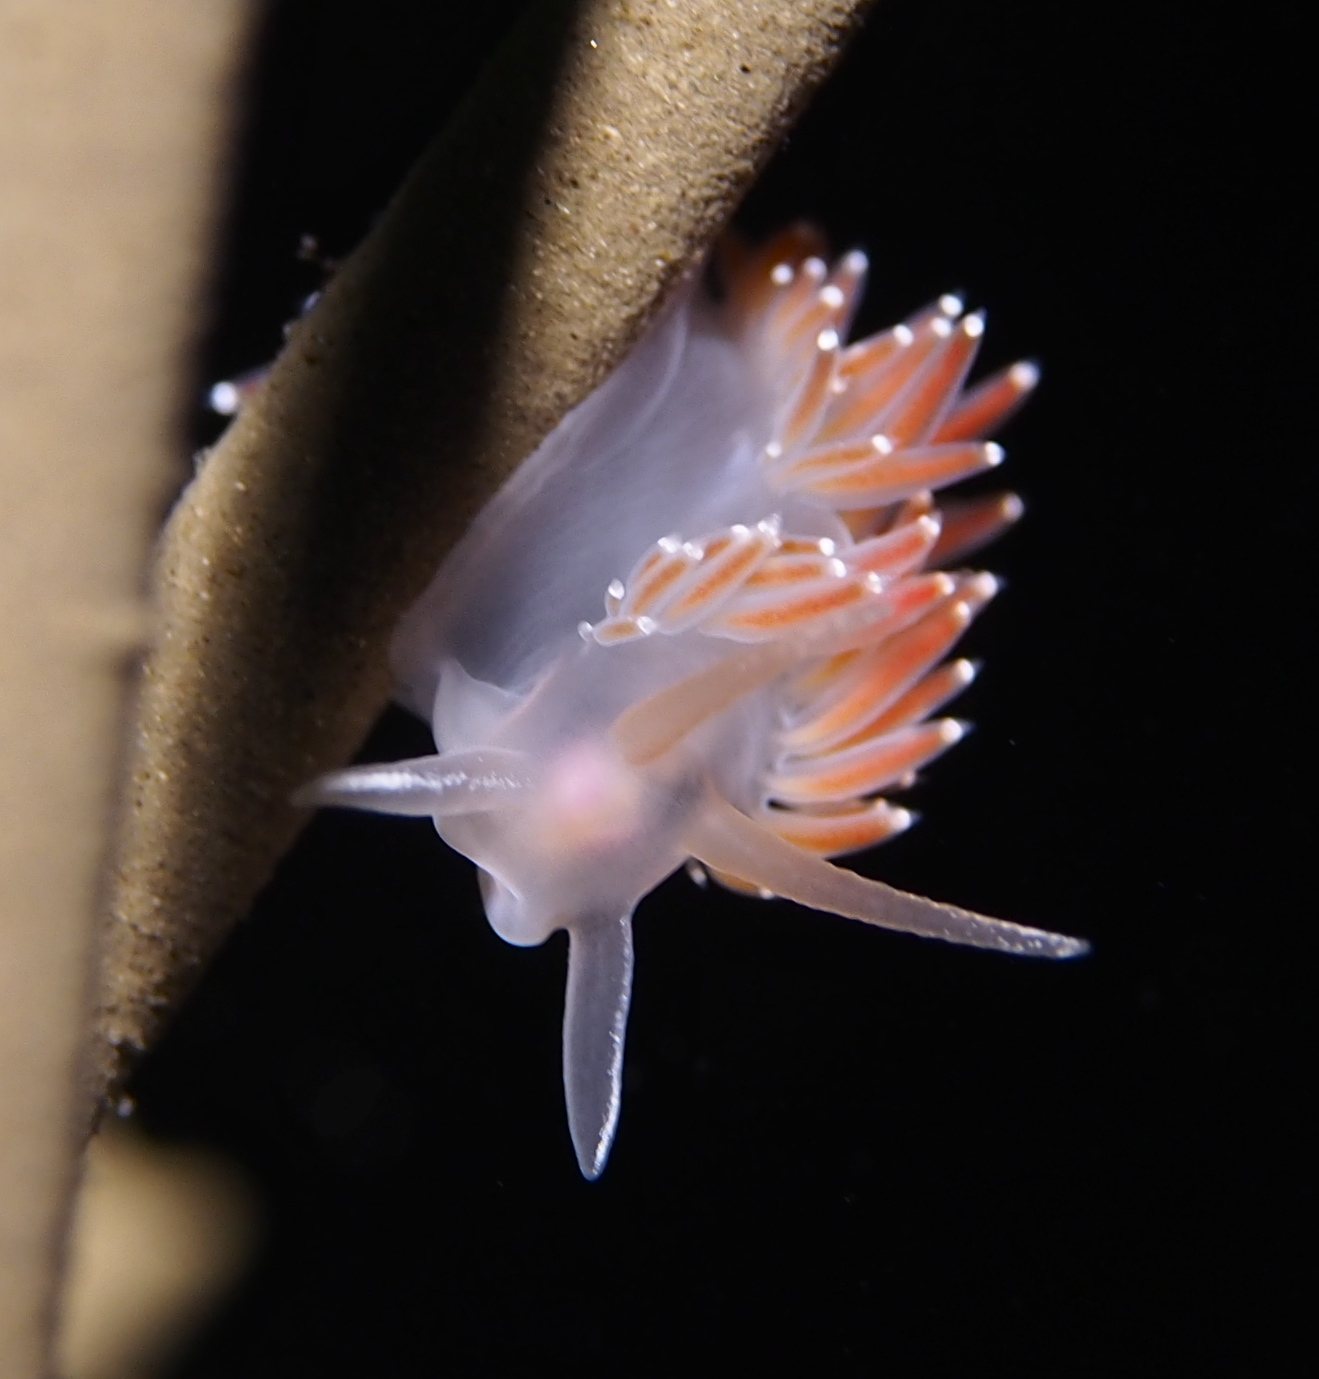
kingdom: Animalia
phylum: Mollusca
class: Gastropoda
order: Nudibranchia
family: Coryphellidae
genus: Coryphella
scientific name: Coryphella verrucosa
